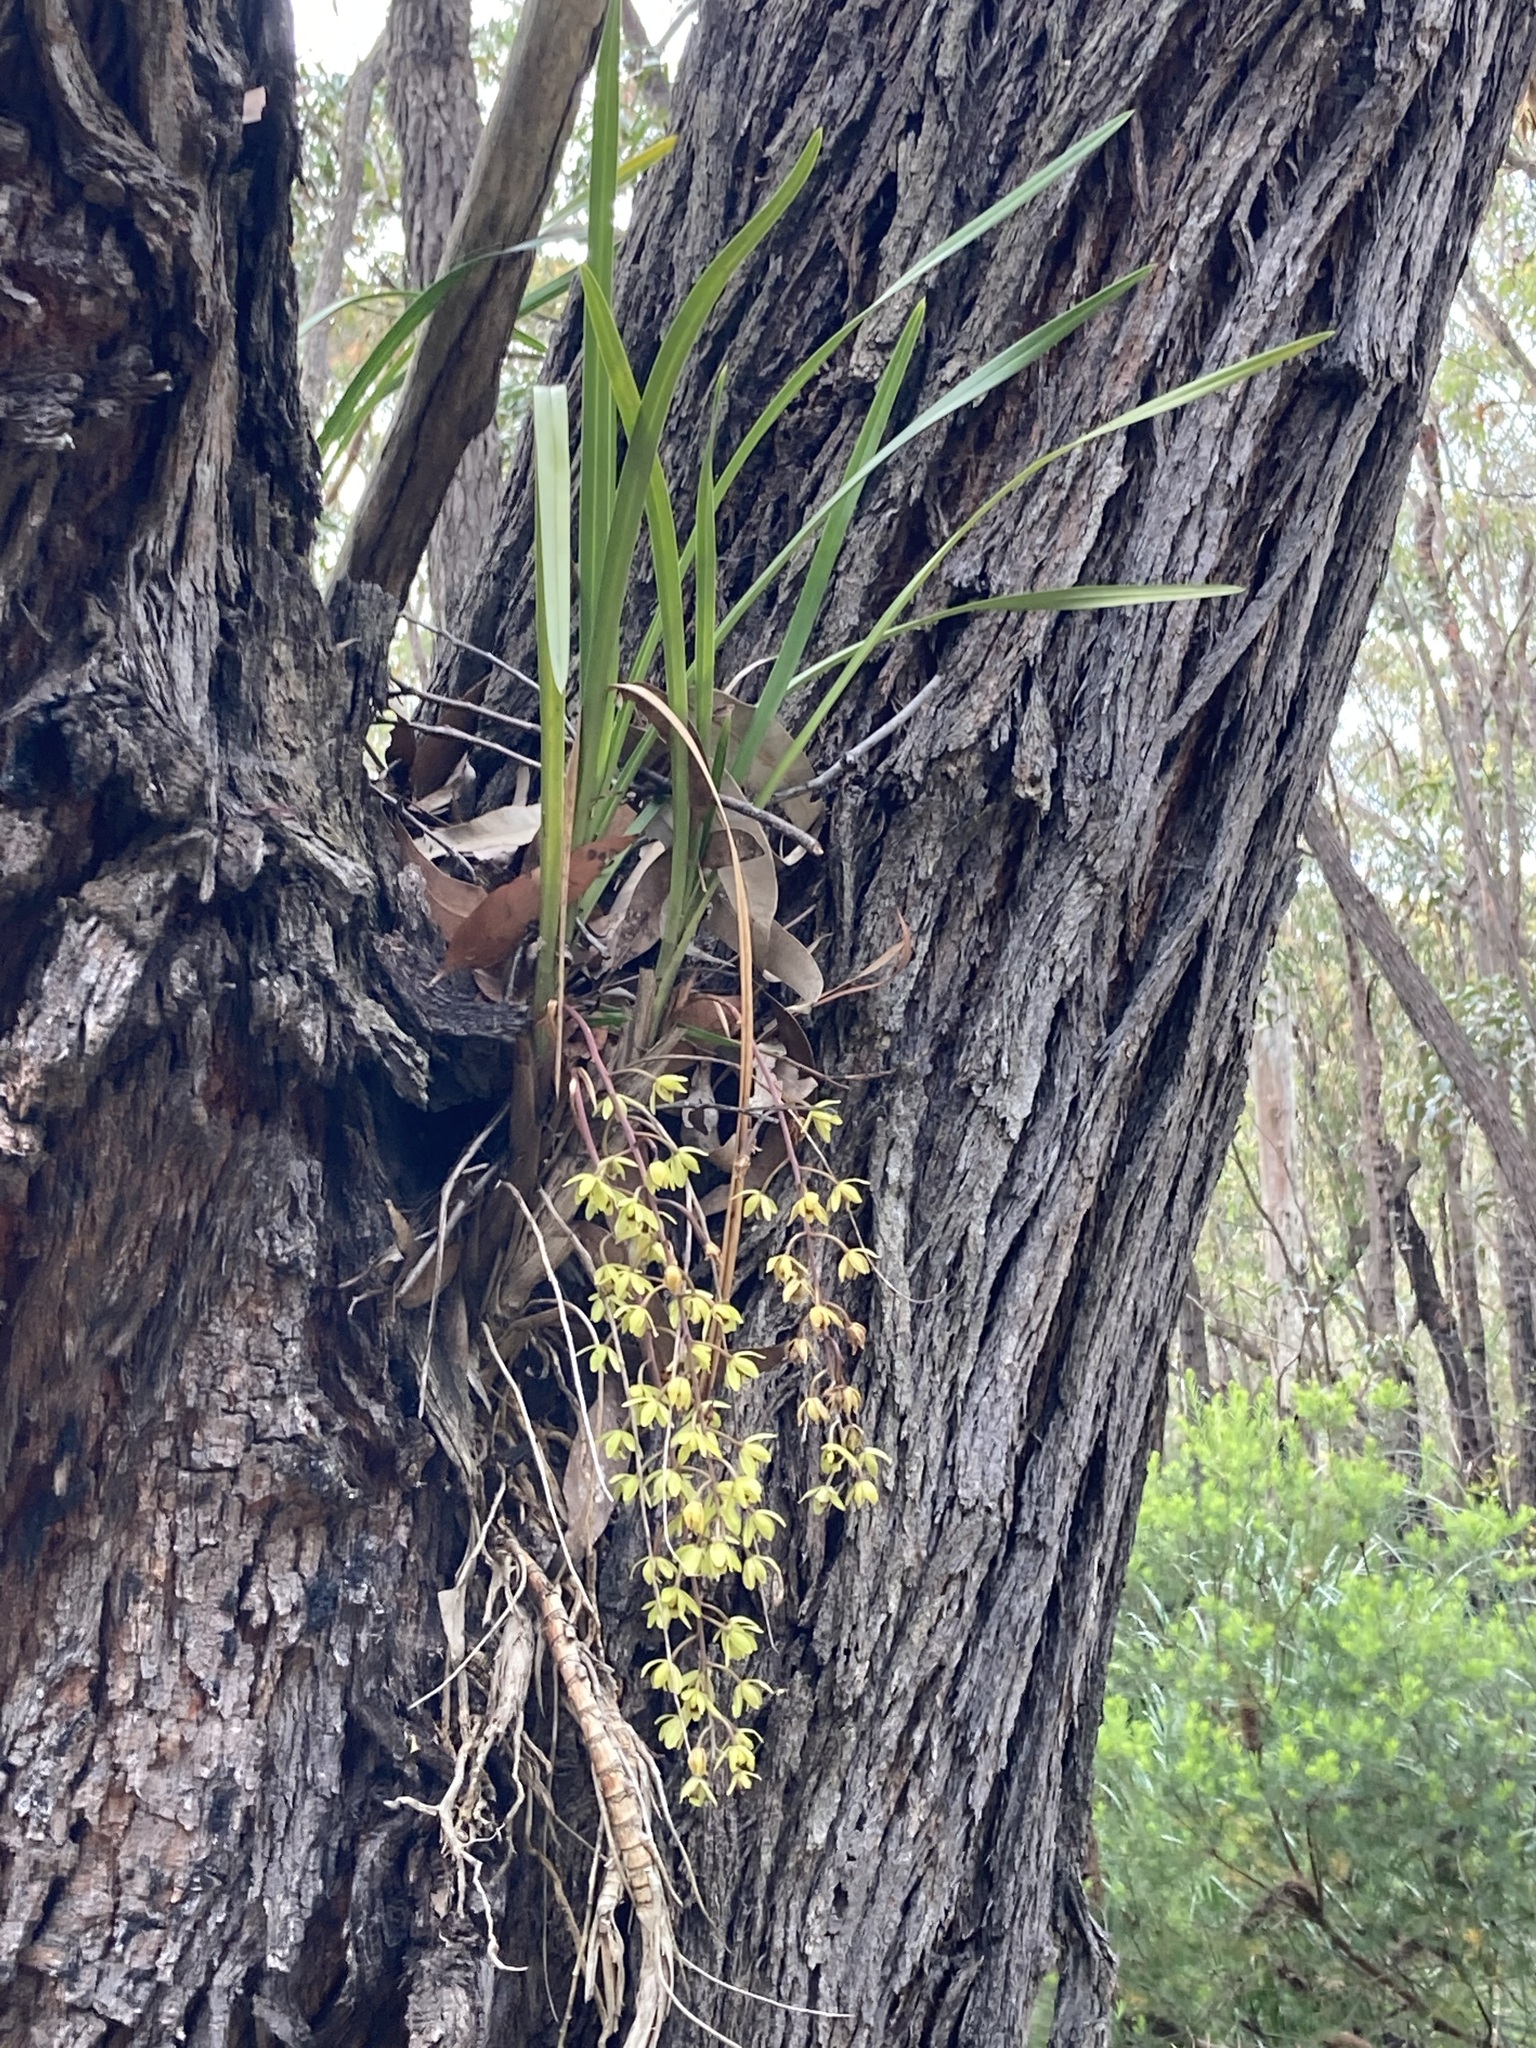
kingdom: Plantae
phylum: Tracheophyta
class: Liliopsida
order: Asparagales
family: Orchidaceae
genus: Cymbidium
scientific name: Cymbidium suave
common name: Snake orchid
